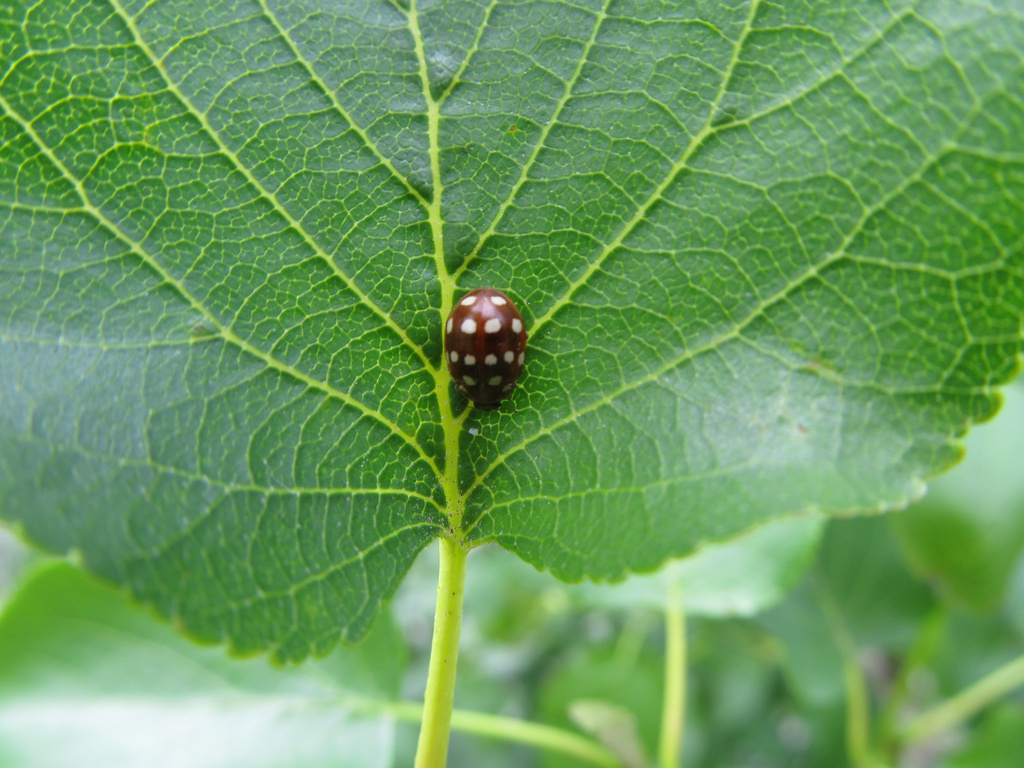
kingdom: Animalia
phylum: Arthropoda
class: Insecta
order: Coleoptera
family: Coccinellidae
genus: Calvia
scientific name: Calvia quatuordecimguttata
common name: Cream-spot ladybird
